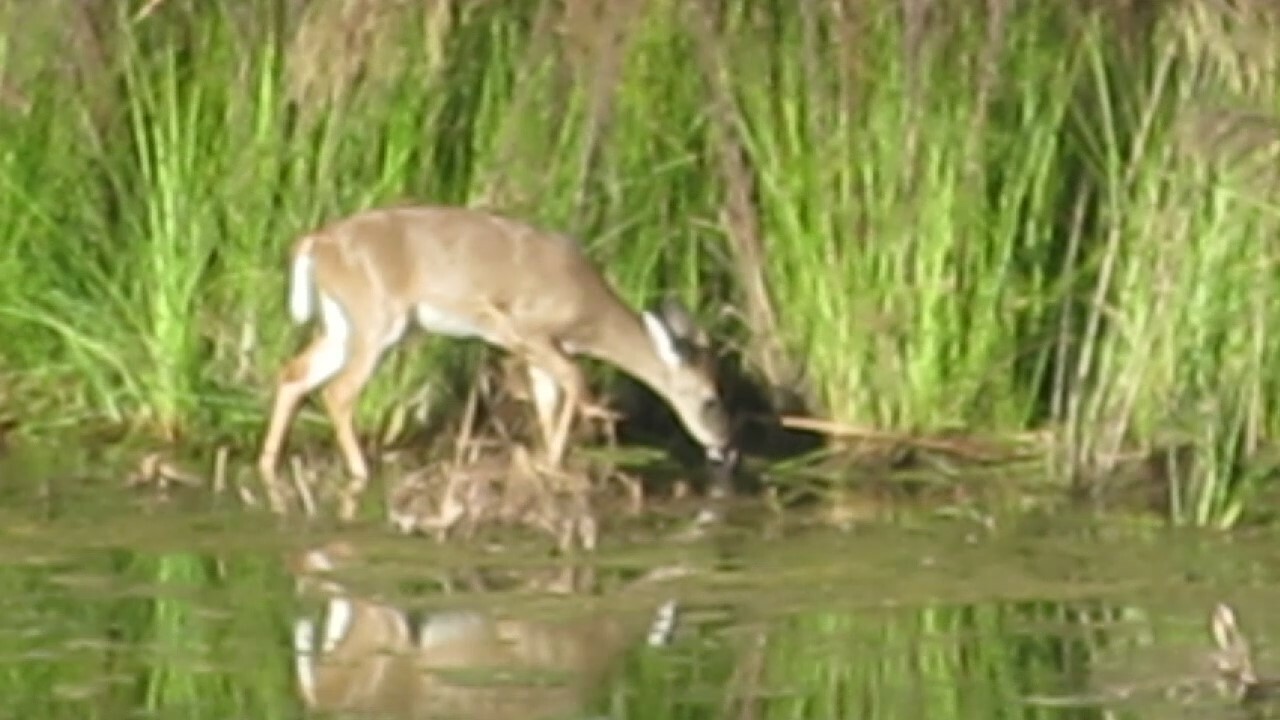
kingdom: Animalia
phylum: Chordata
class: Mammalia
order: Artiodactyla
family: Cervidae
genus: Odocoileus
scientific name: Odocoileus virginianus
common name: White-tailed deer
